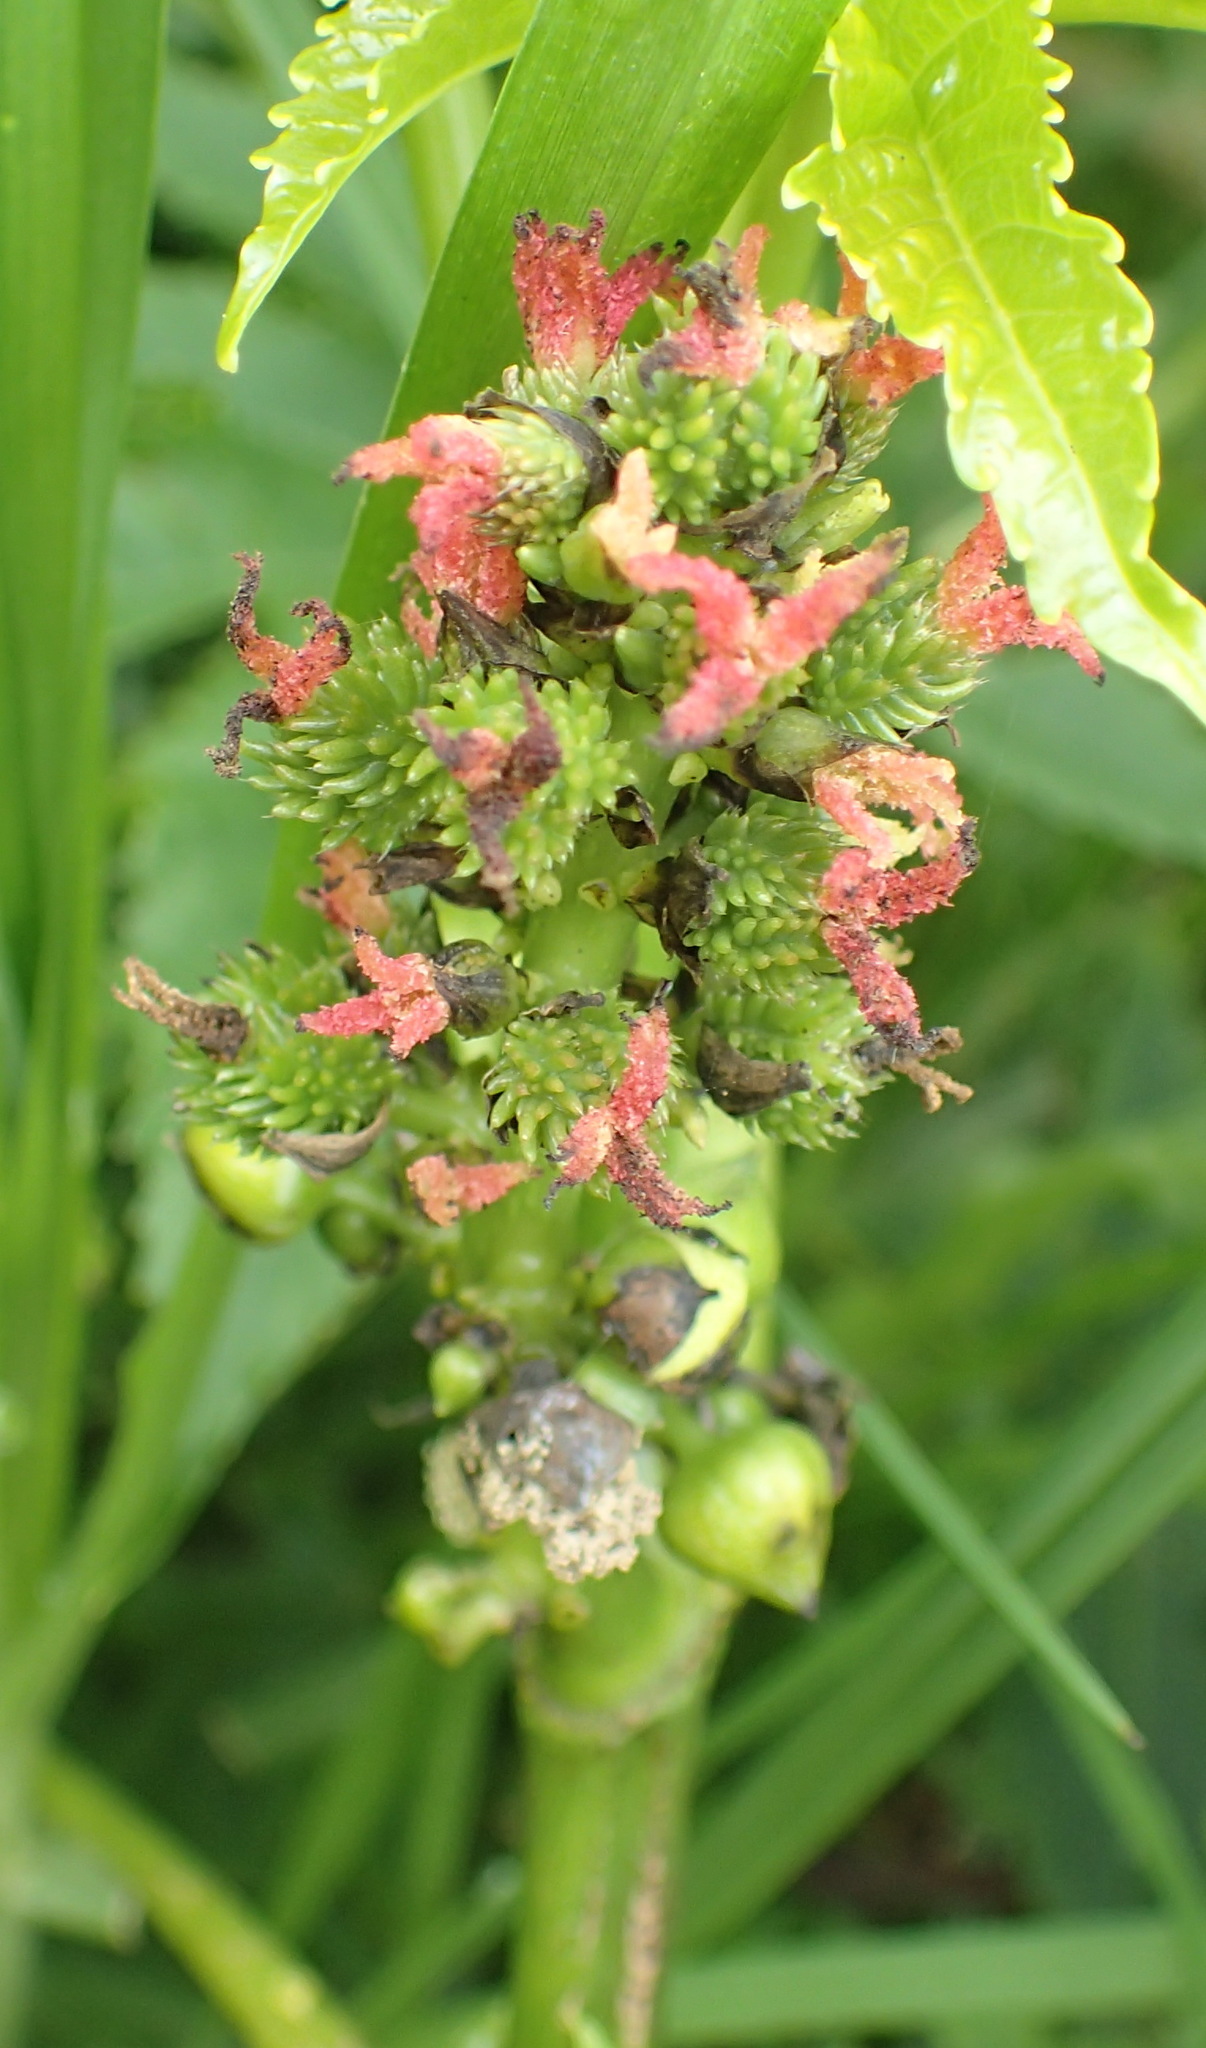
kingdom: Plantae
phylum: Tracheophyta
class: Magnoliopsida
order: Malpighiales
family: Euphorbiaceae
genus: Ricinus
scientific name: Ricinus communis
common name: Castor-oil-plant
